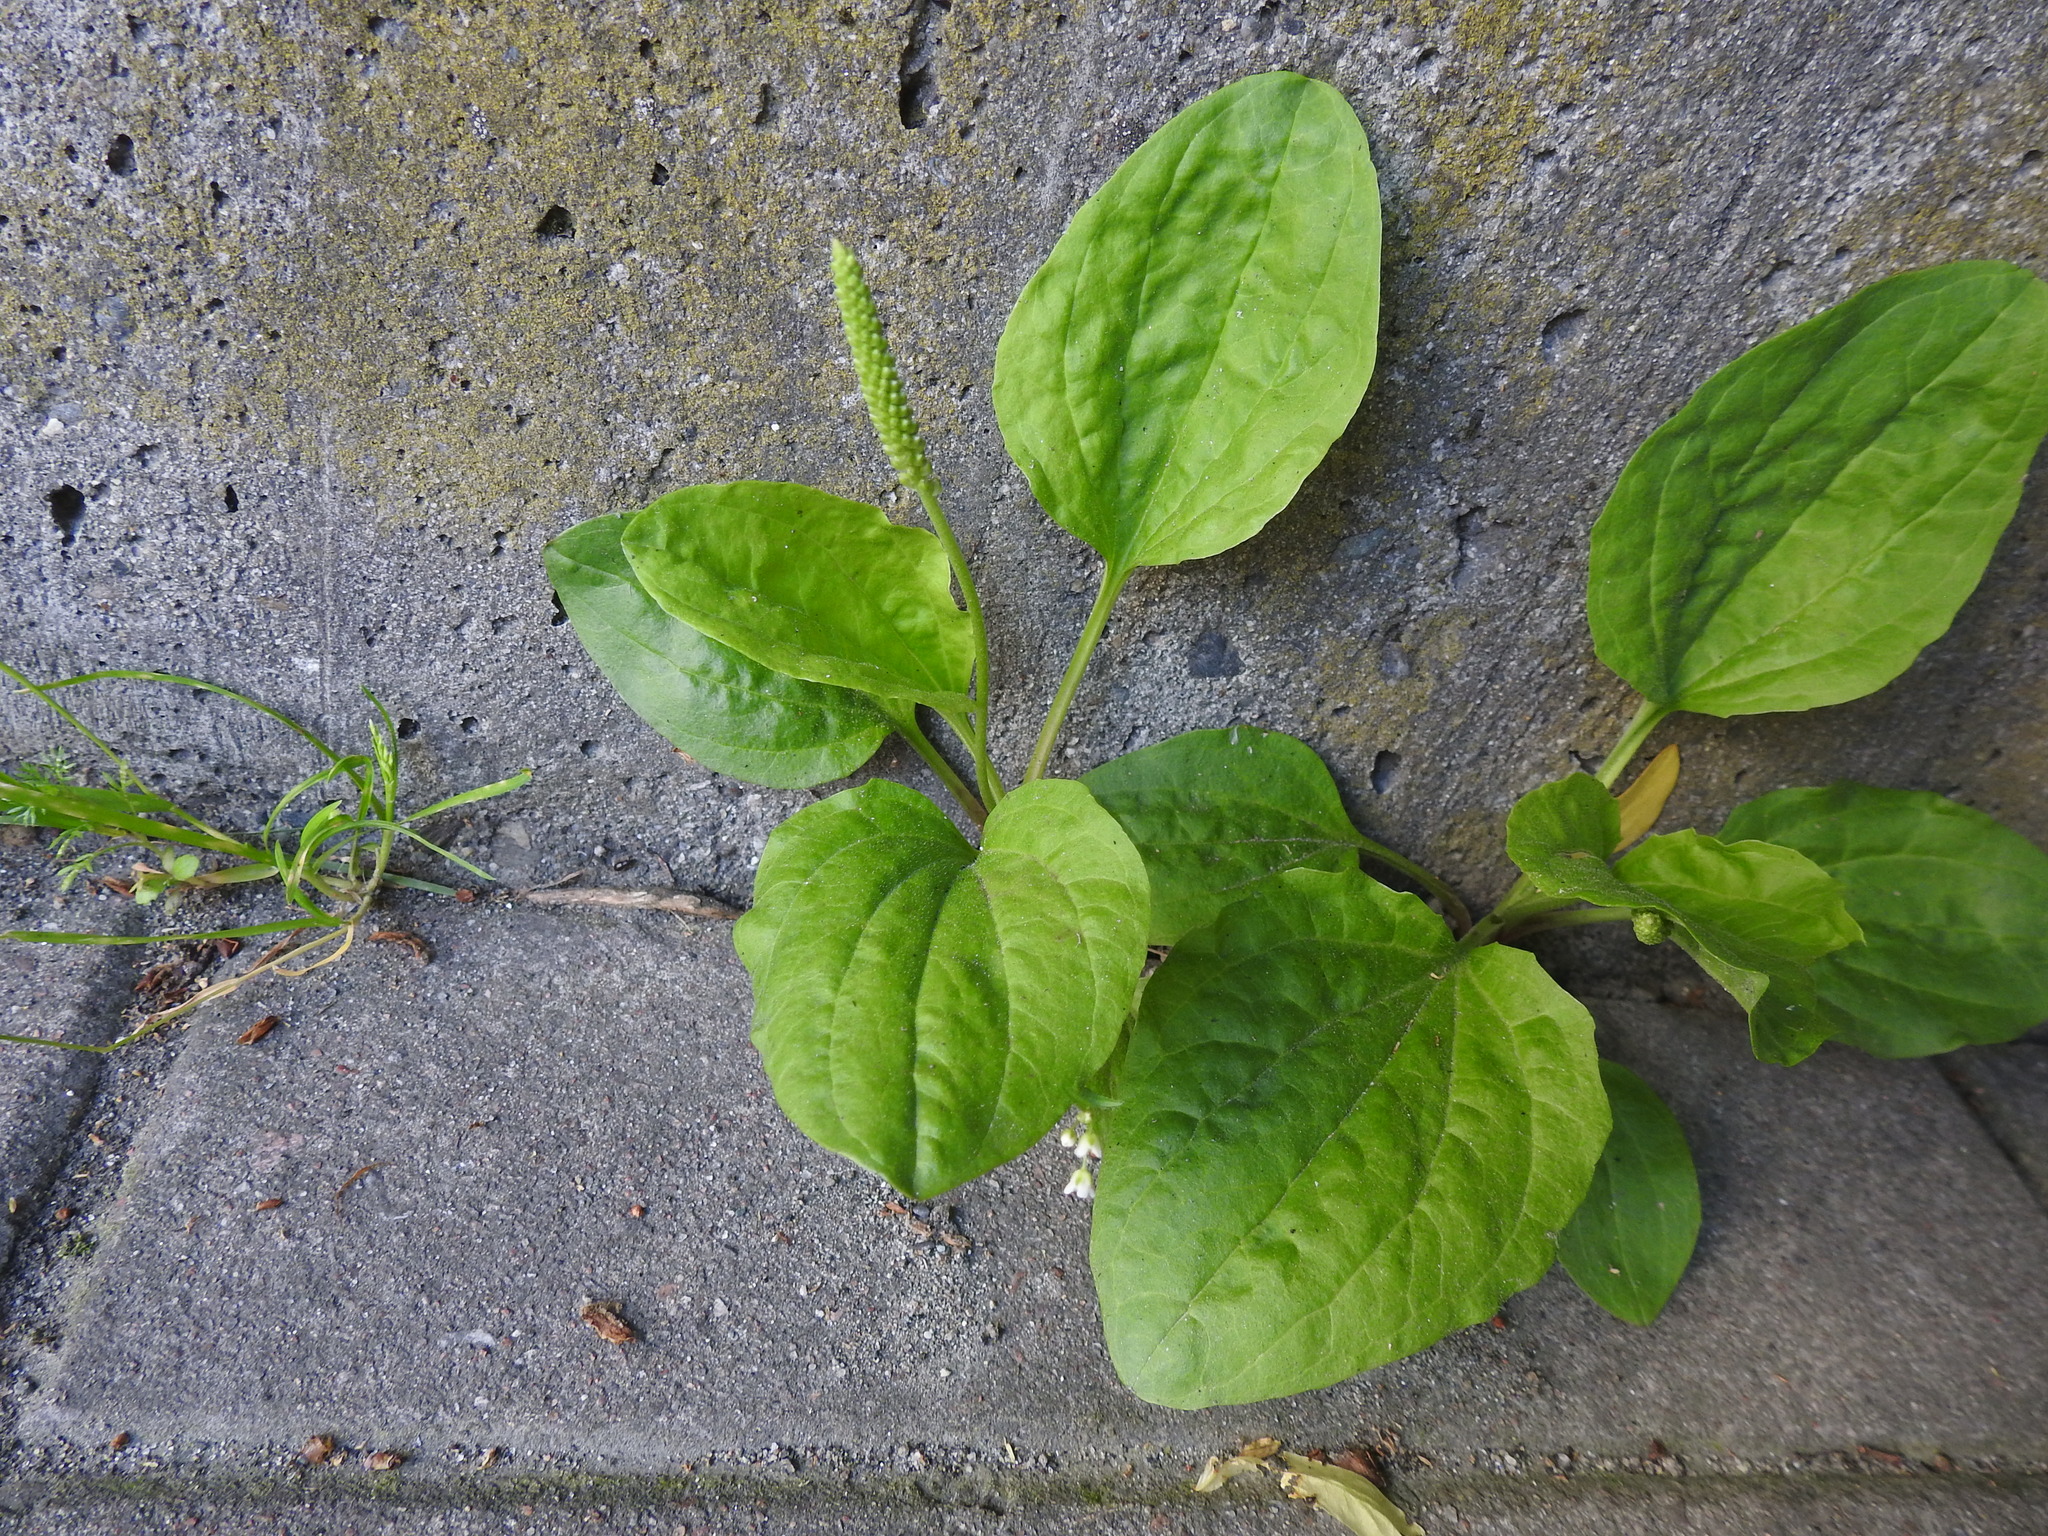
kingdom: Plantae
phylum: Tracheophyta
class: Magnoliopsida
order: Lamiales
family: Plantaginaceae
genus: Plantago
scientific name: Plantago major
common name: Common plantain
